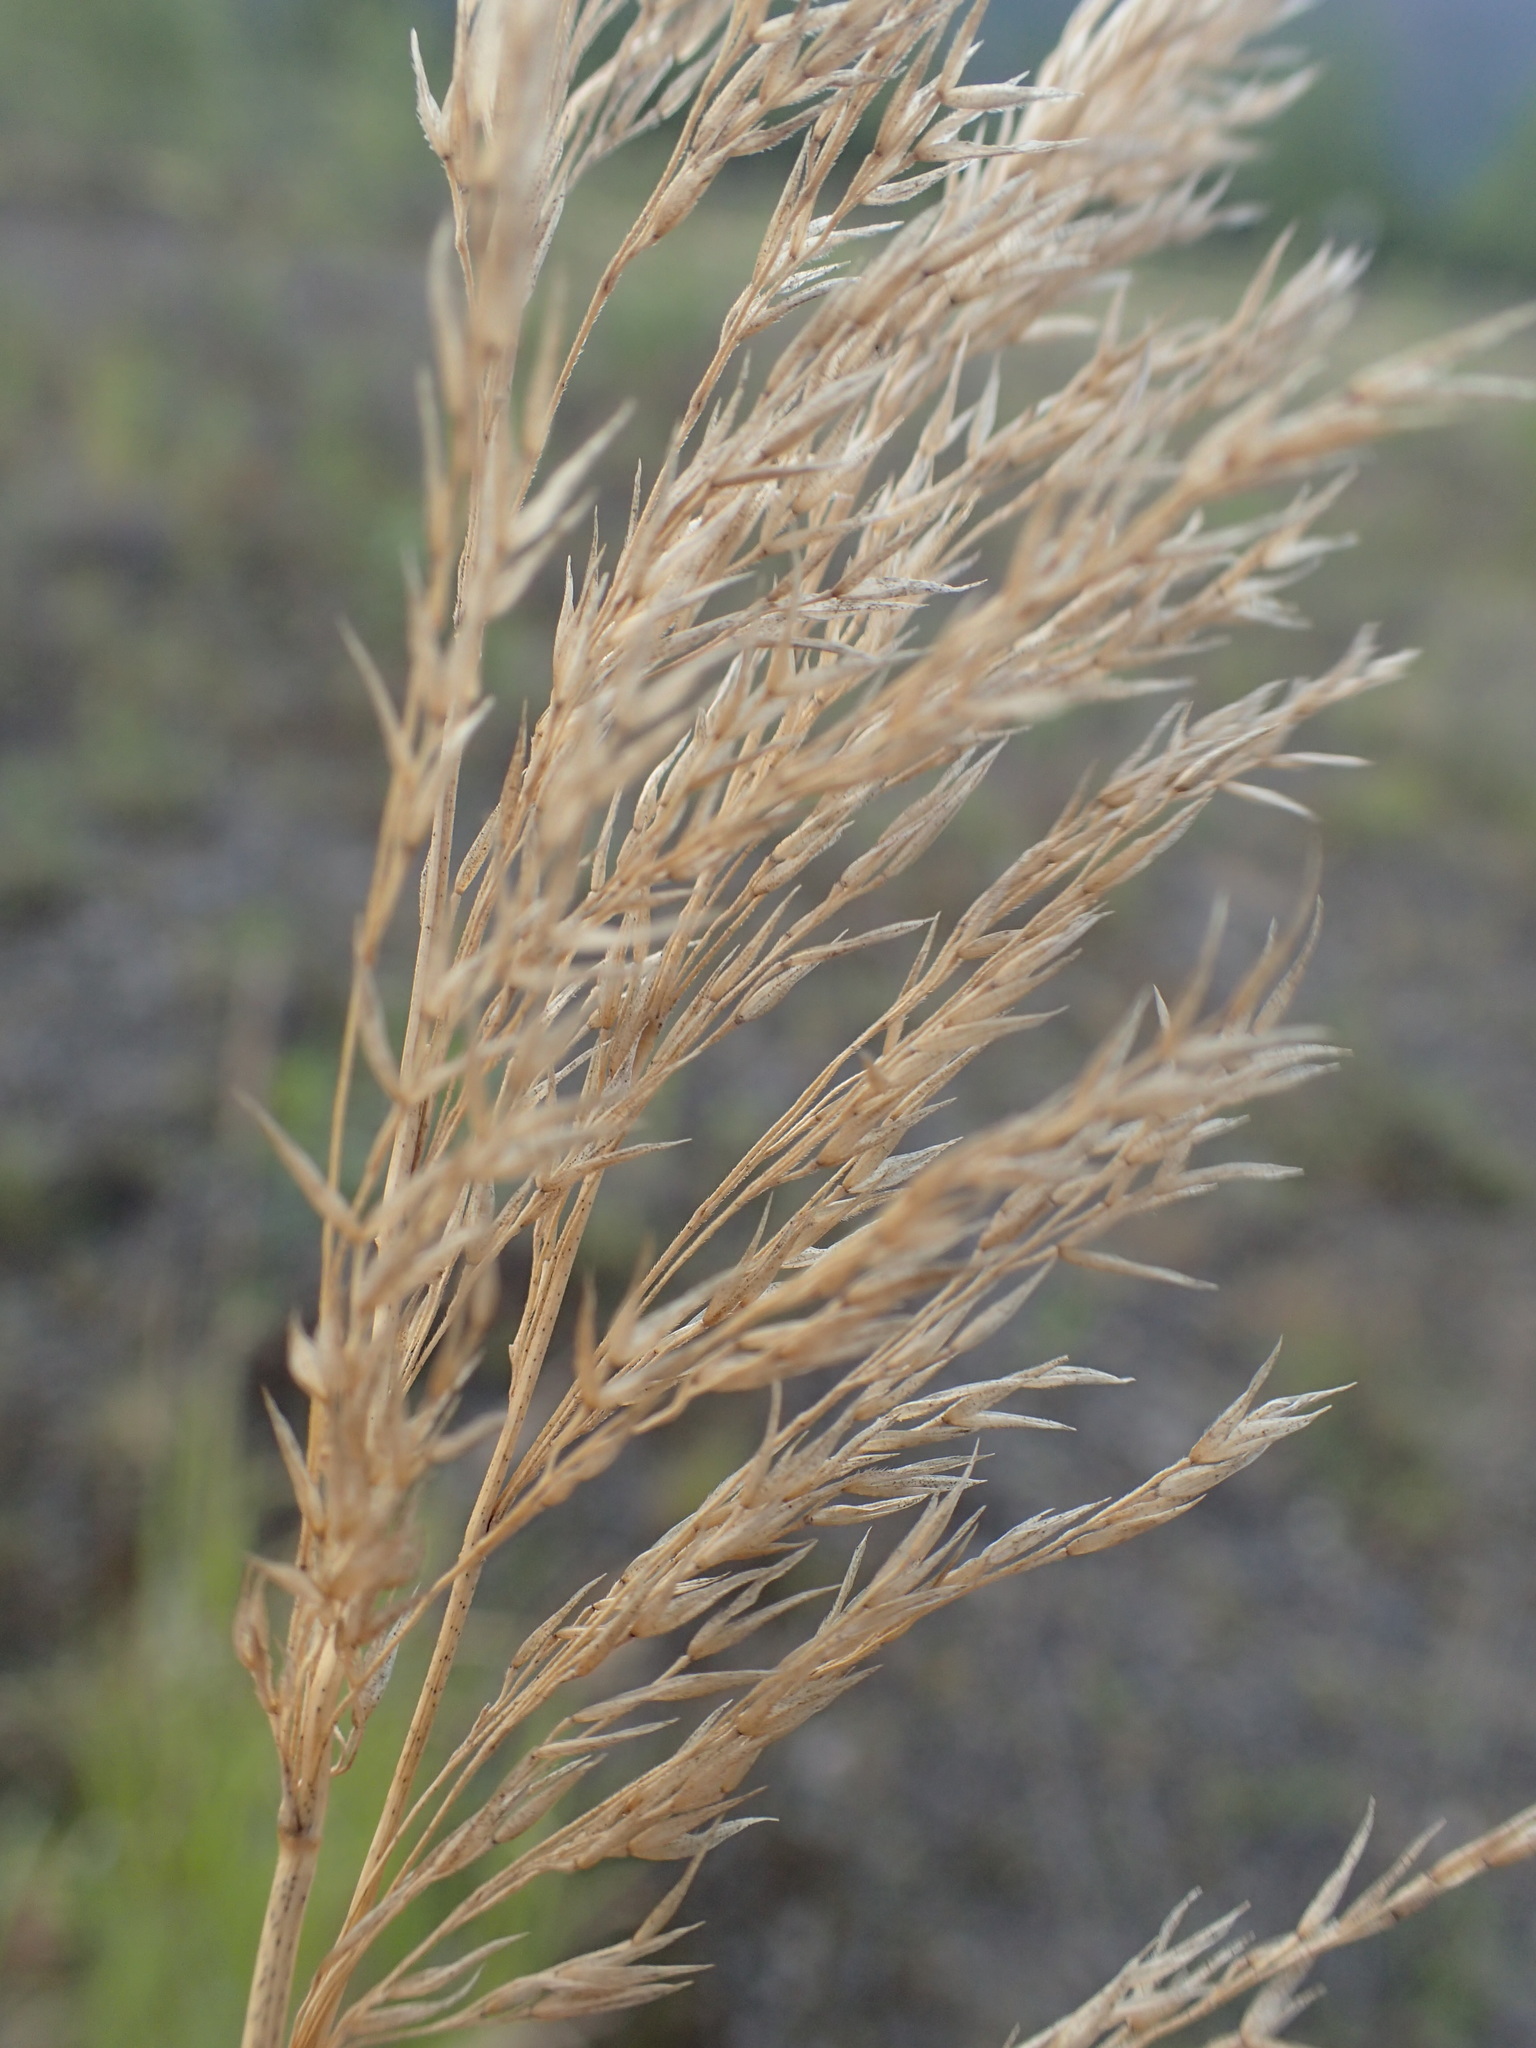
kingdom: Plantae
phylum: Tracheophyta
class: Liliopsida
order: Poales
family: Poaceae
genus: Calamagrostis
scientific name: Calamagrostis canadensis
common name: Canada bluejoint
